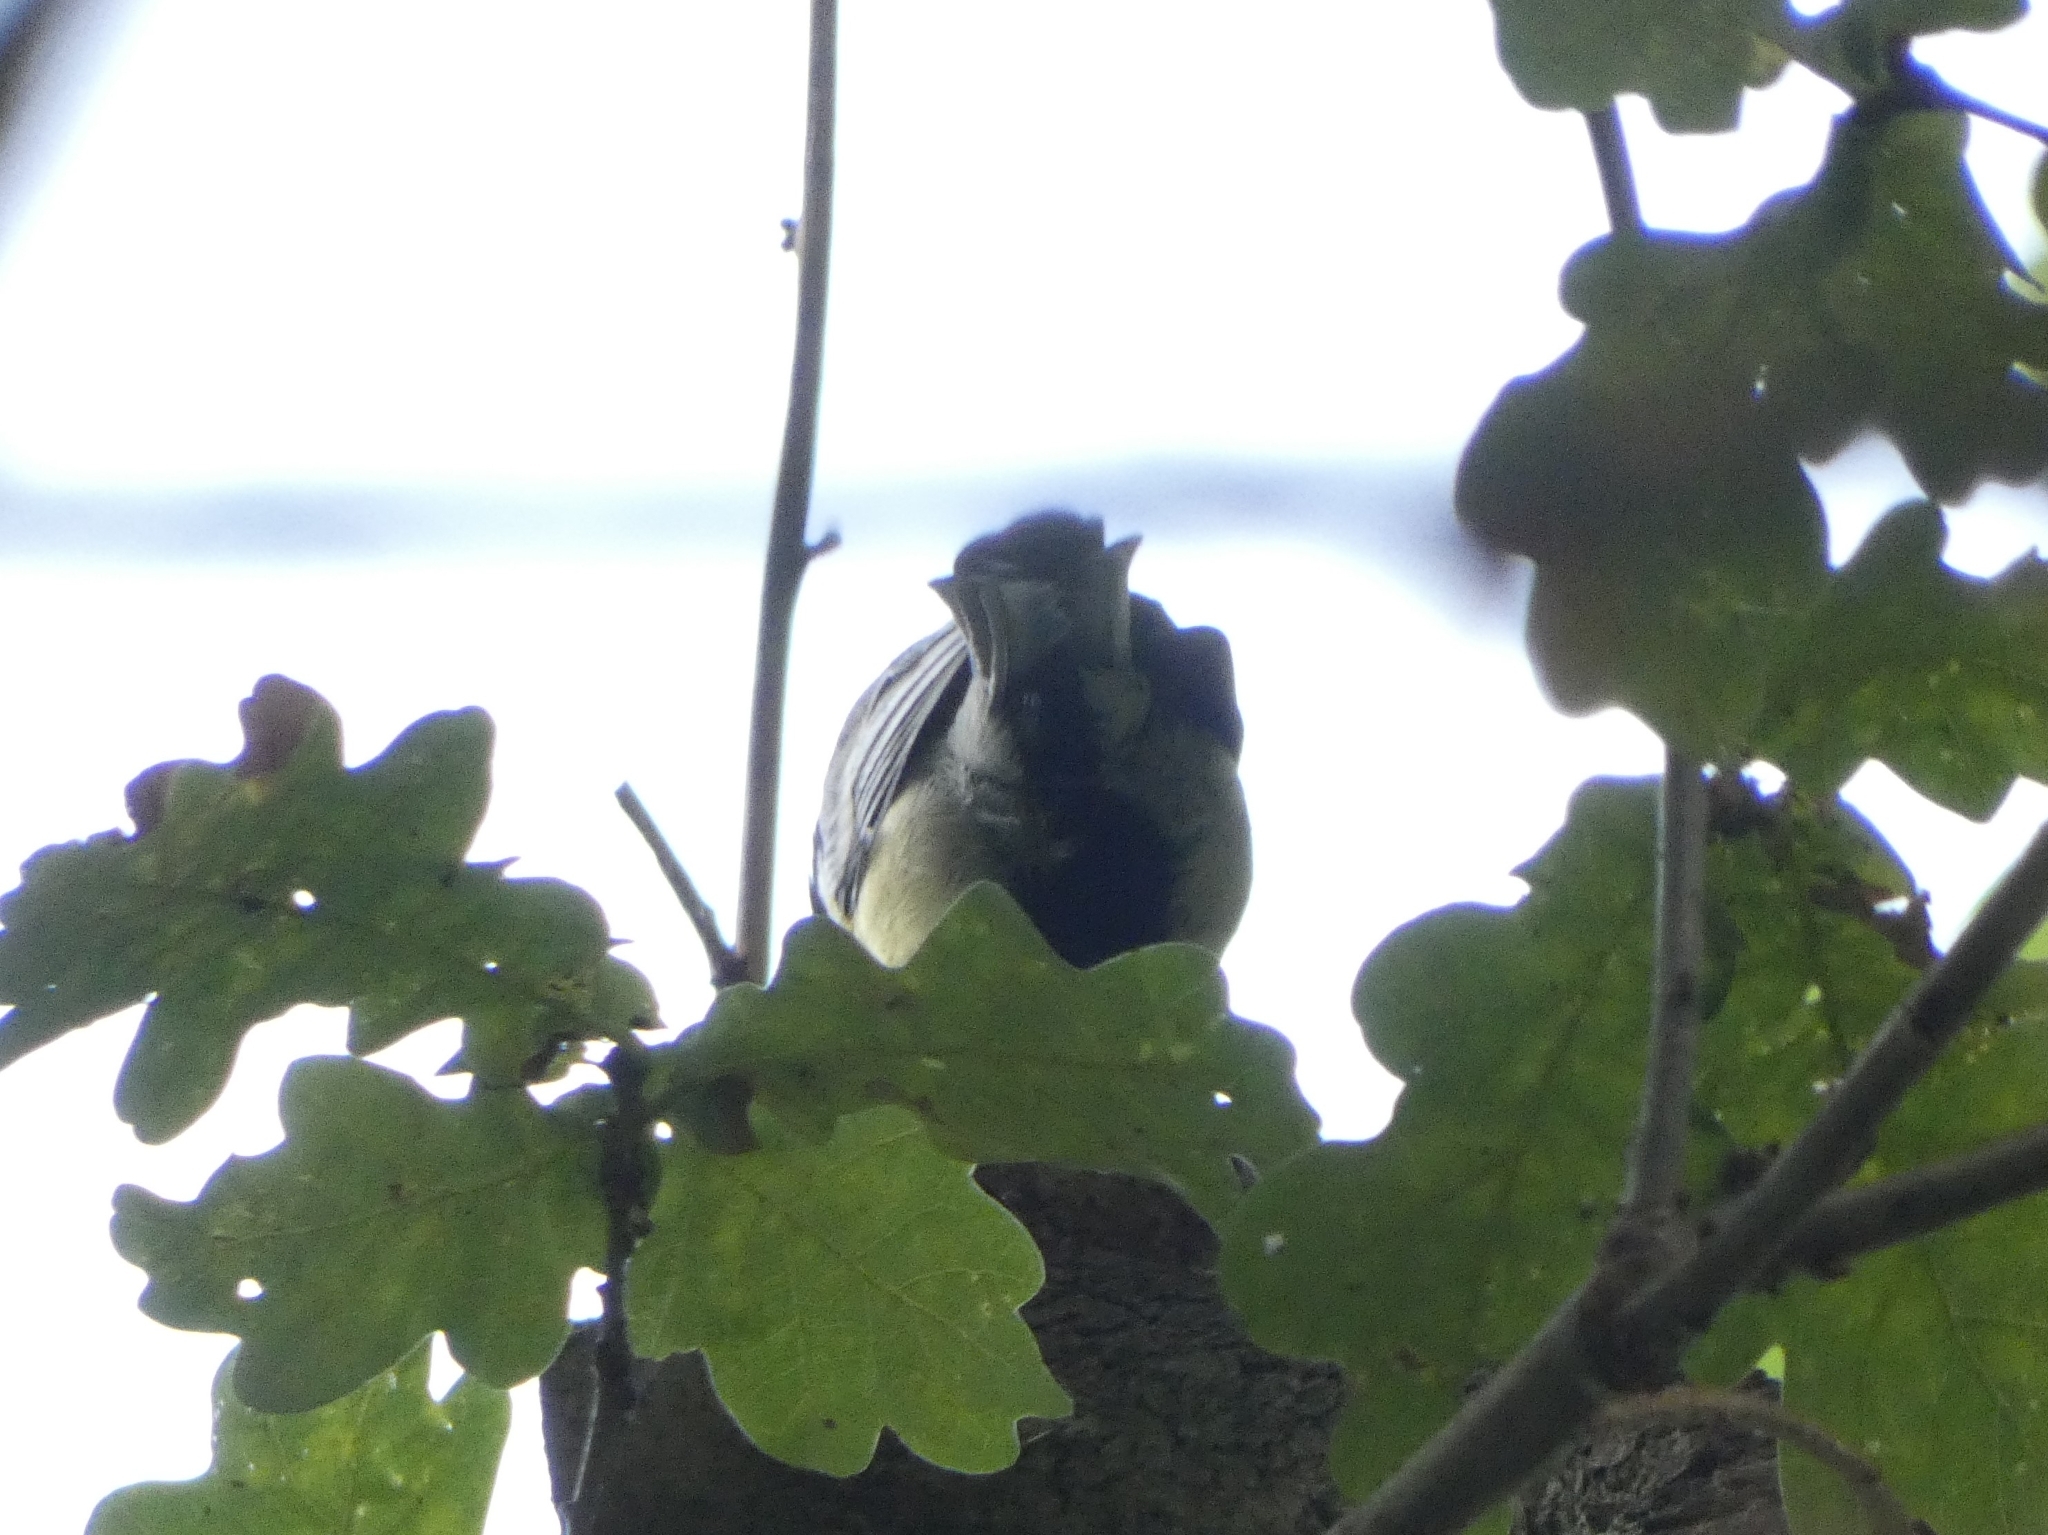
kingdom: Animalia
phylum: Chordata
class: Aves
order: Passeriformes
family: Paridae
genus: Parus
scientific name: Parus major
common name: Great tit
